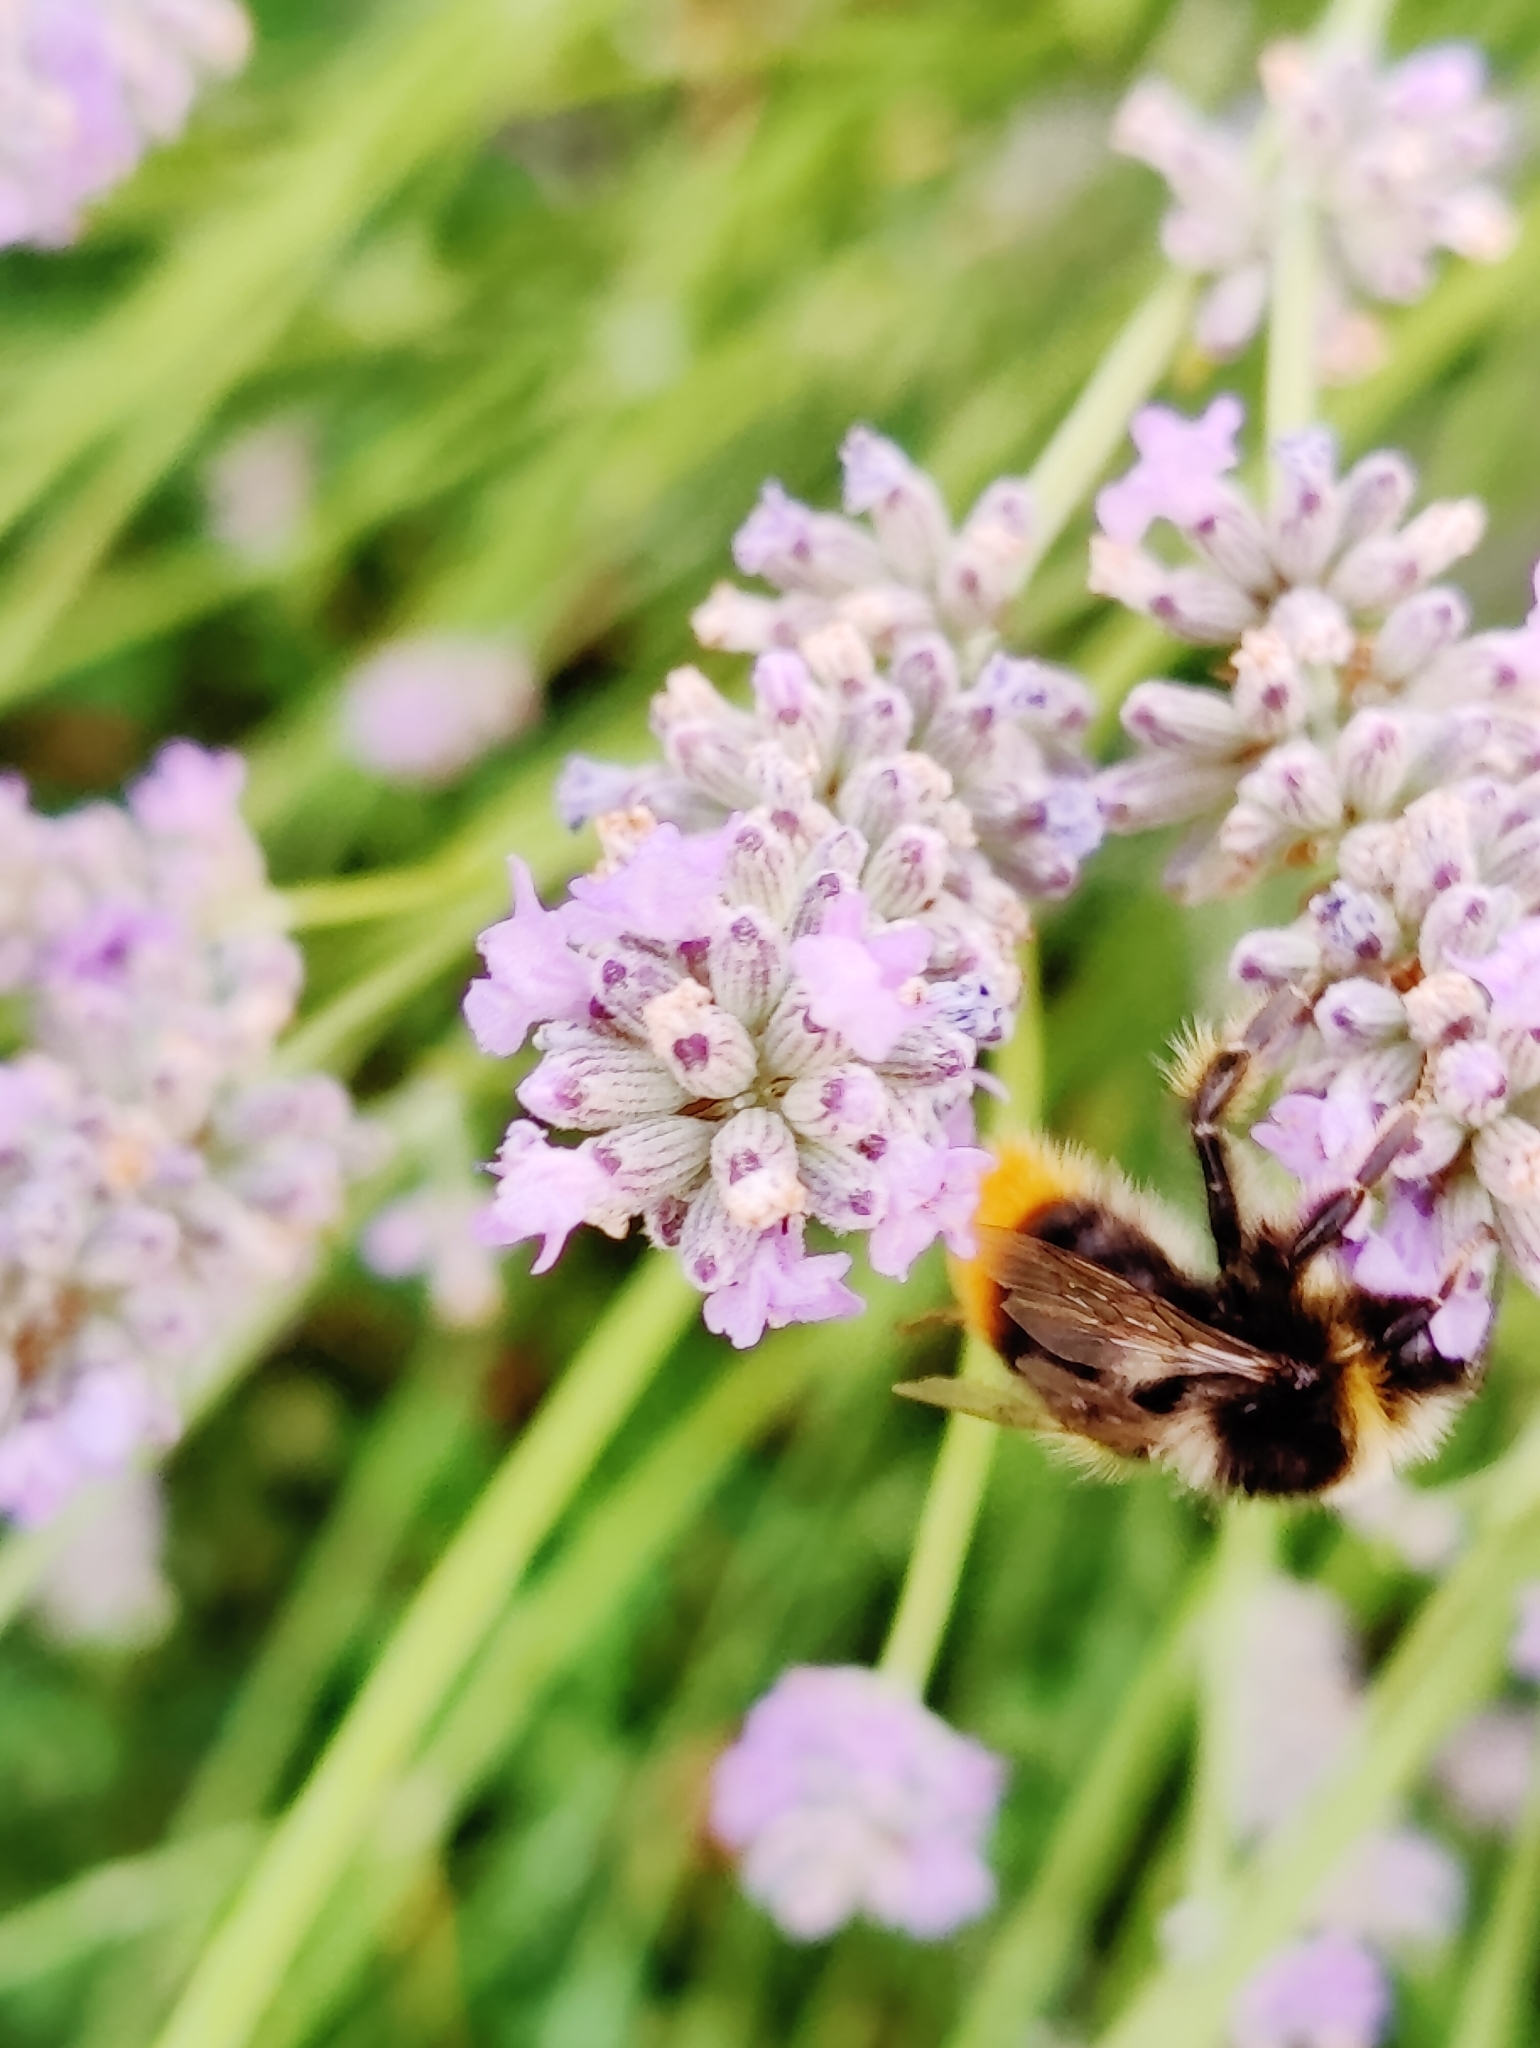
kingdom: Animalia
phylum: Arthropoda
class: Insecta
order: Hymenoptera
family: Apidae
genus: Bombus
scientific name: Bombus lapidarius
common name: Large red-tailed humble-bee
